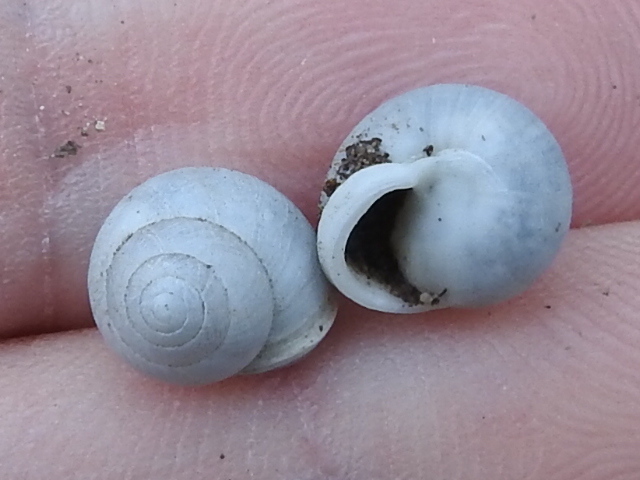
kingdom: Animalia
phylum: Mollusca
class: Gastropoda
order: Cycloneritida
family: Helicinidae
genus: Helicina
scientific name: Helicina orbiculata
